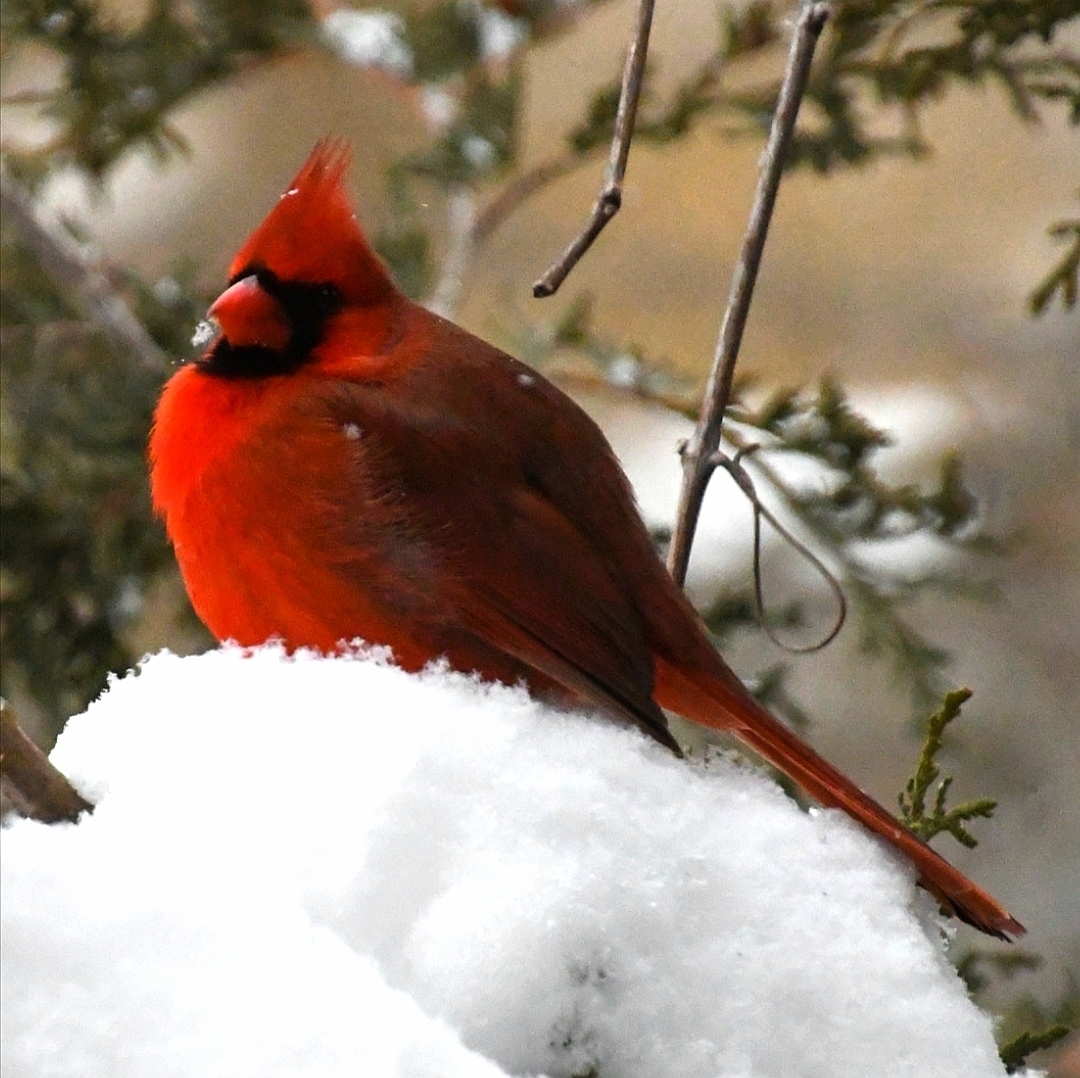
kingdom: Animalia
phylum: Chordata
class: Aves
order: Passeriformes
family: Cardinalidae
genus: Cardinalis
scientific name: Cardinalis cardinalis
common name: Northern cardinal
